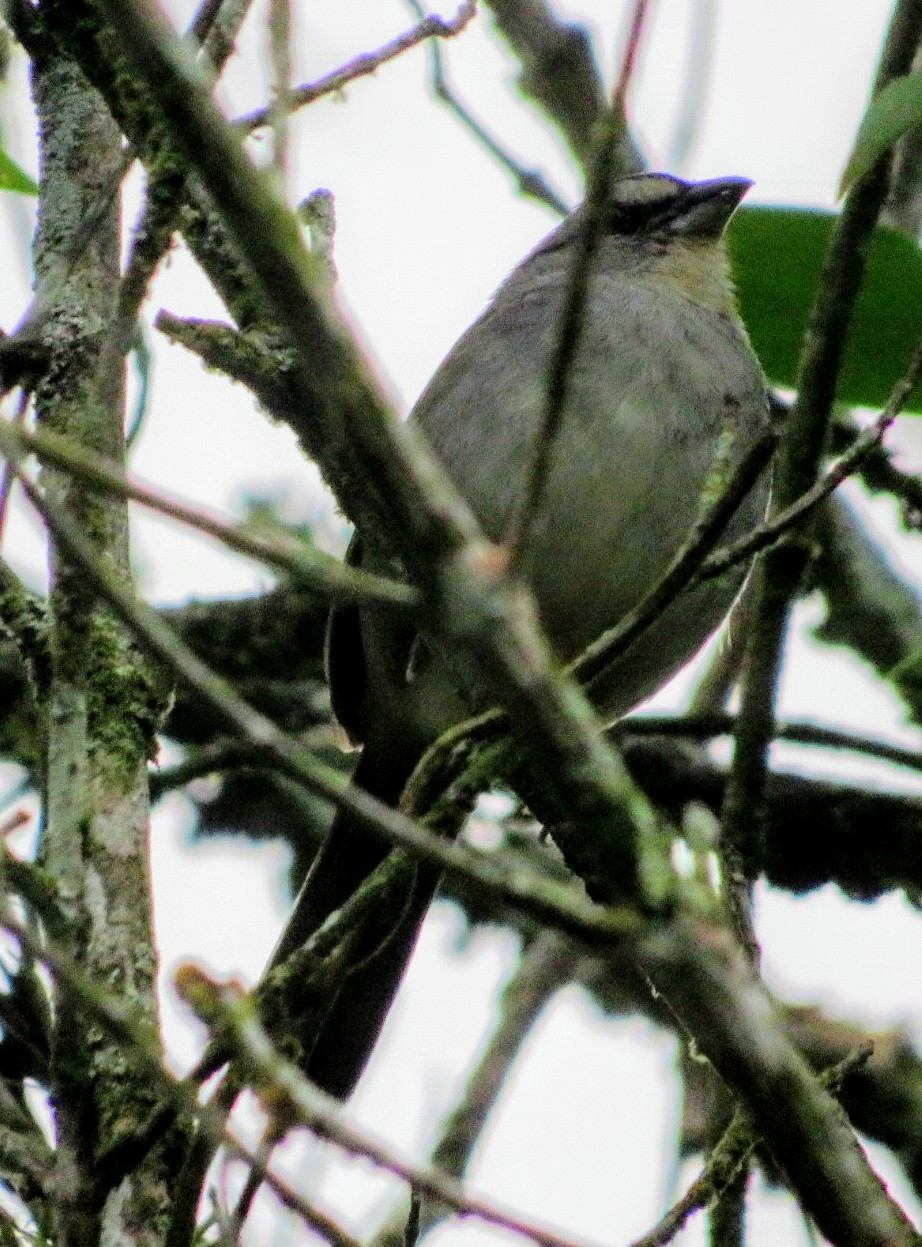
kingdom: Animalia
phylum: Chordata
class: Aves
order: Passeriformes
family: Passerellidae
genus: Arremonops
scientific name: Arremonops conirostris
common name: Black-striped sparrow
